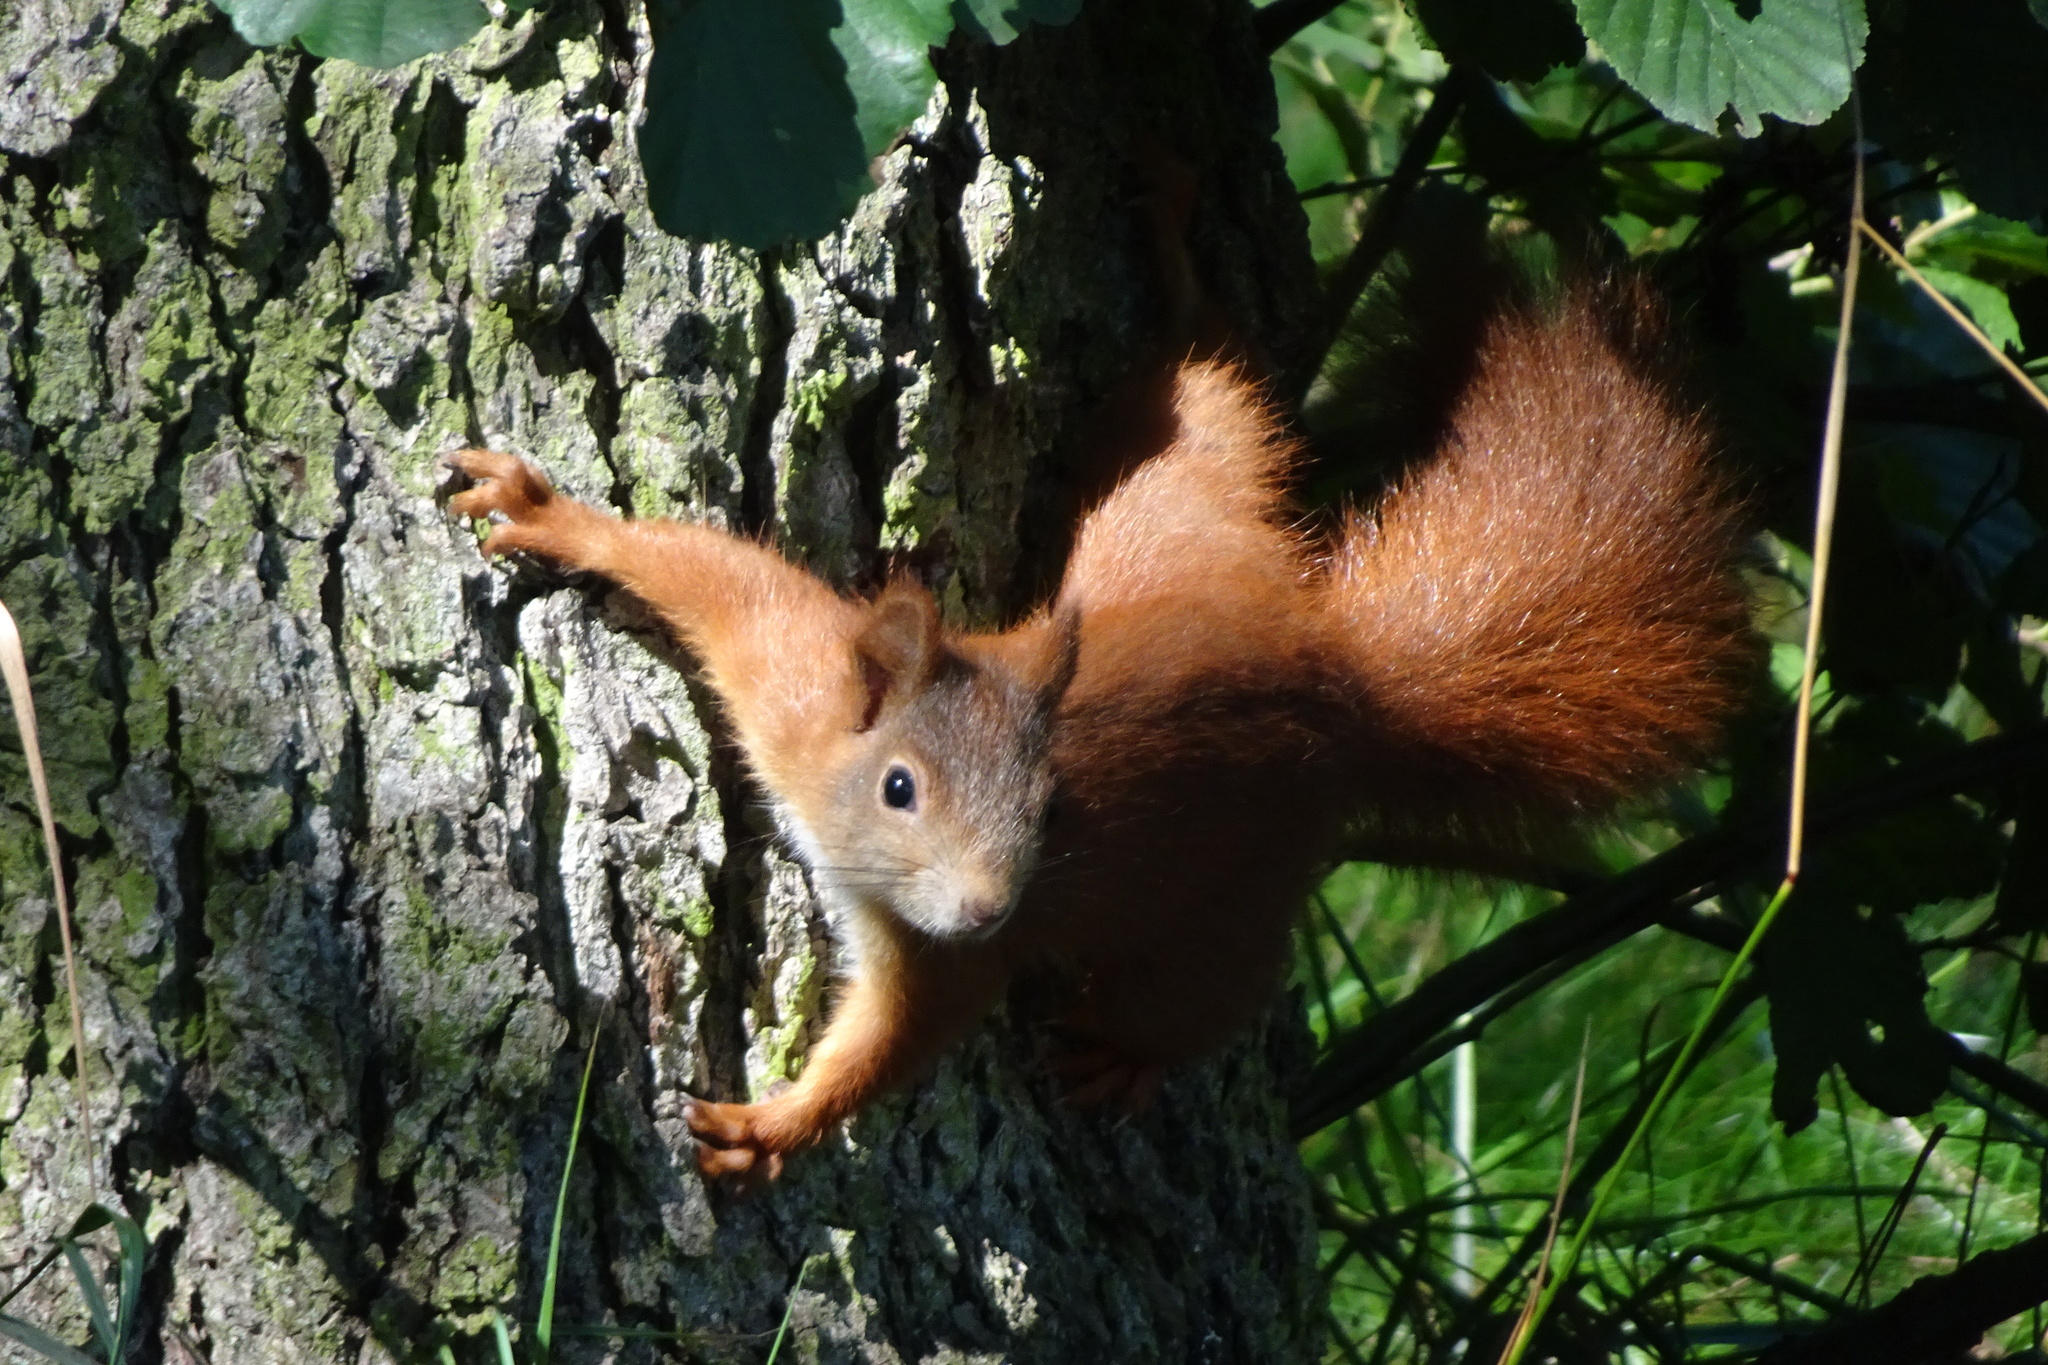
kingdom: Animalia
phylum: Chordata
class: Mammalia
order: Rodentia
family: Sciuridae
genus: Sciurus
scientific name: Sciurus vulgaris
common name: Eurasian red squirrel
